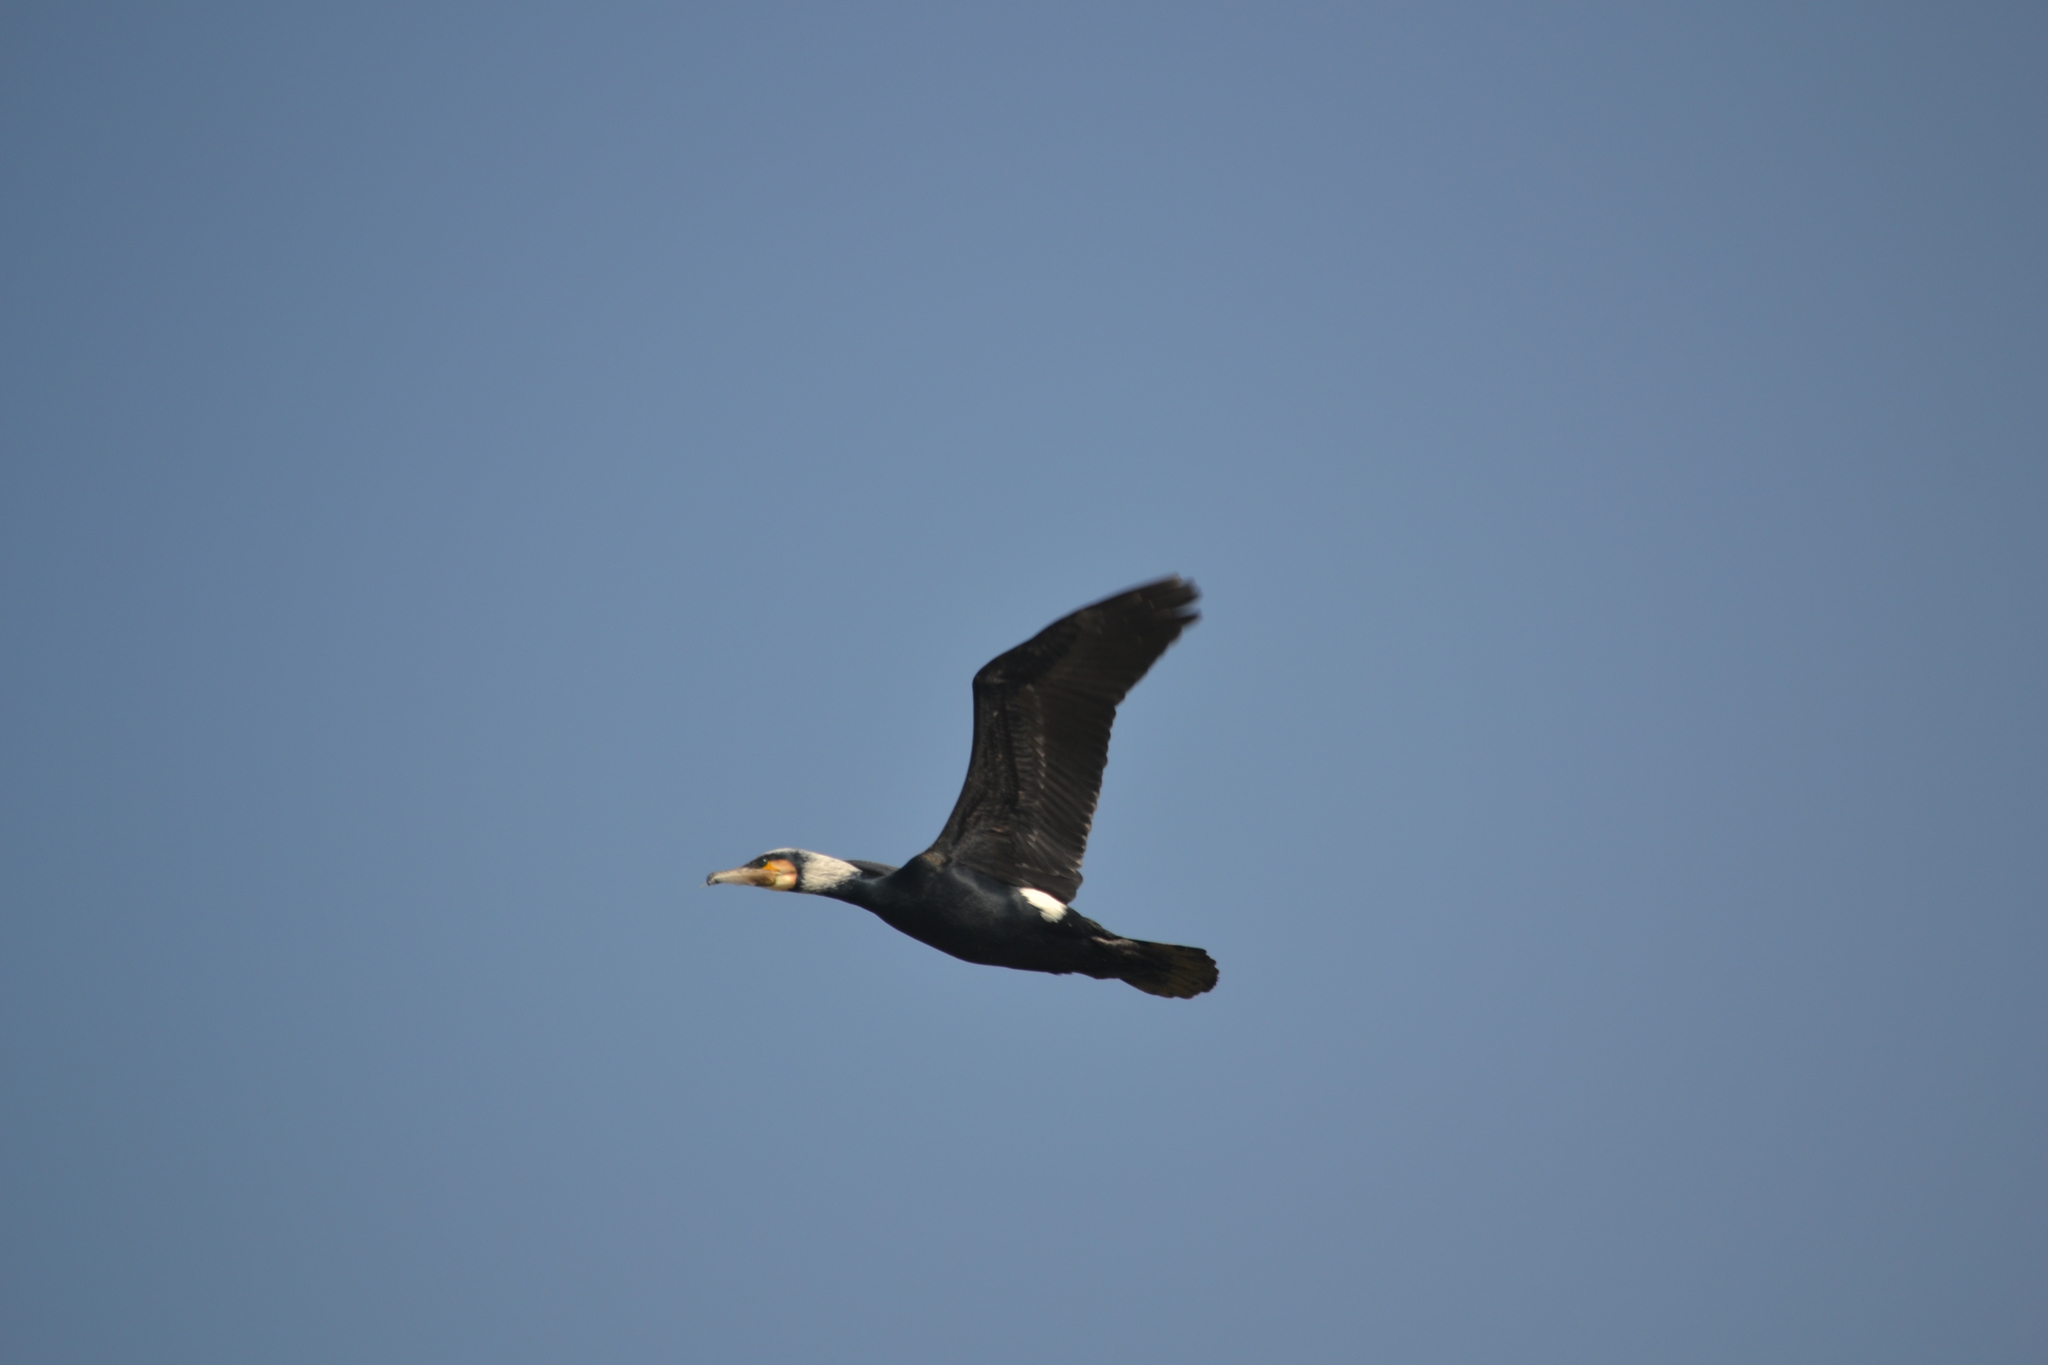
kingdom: Animalia
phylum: Chordata
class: Aves
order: Suliformes
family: Phalacrocoracidae
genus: Phalacrocorax
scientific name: Phalacrocorax carbo
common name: Great cormorant
